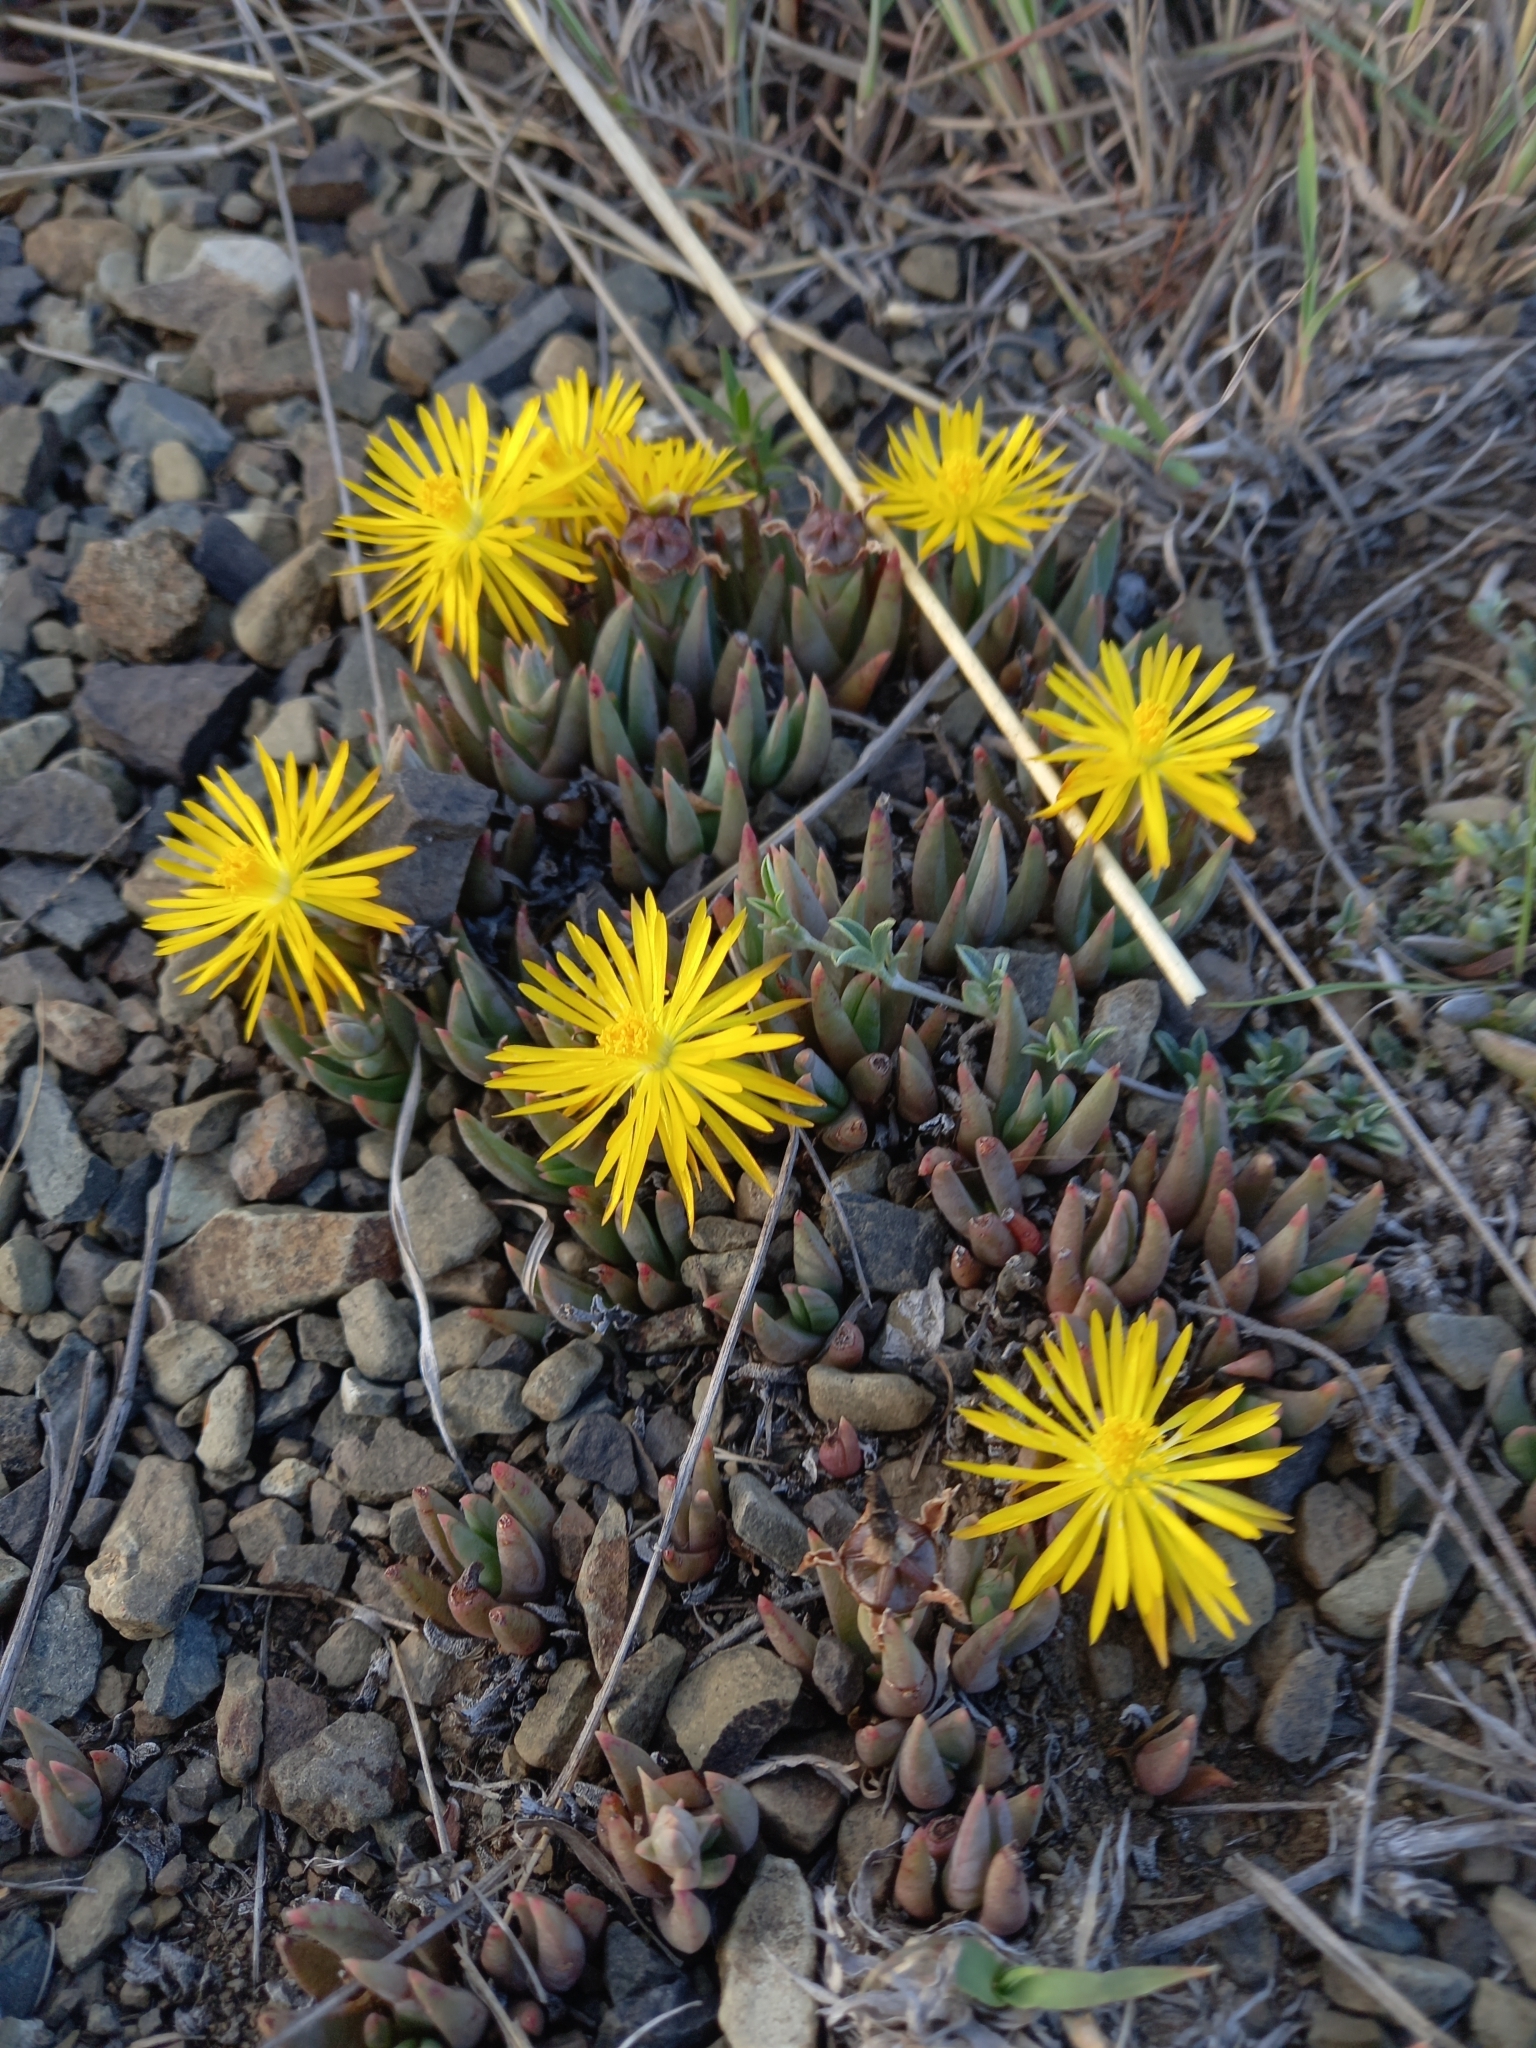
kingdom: Plantae
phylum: Tracheophyta
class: Magnoliopsida
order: Caryophyllales
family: Aizoaceae
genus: Bergeranthus
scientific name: Bergeranthus nanus
